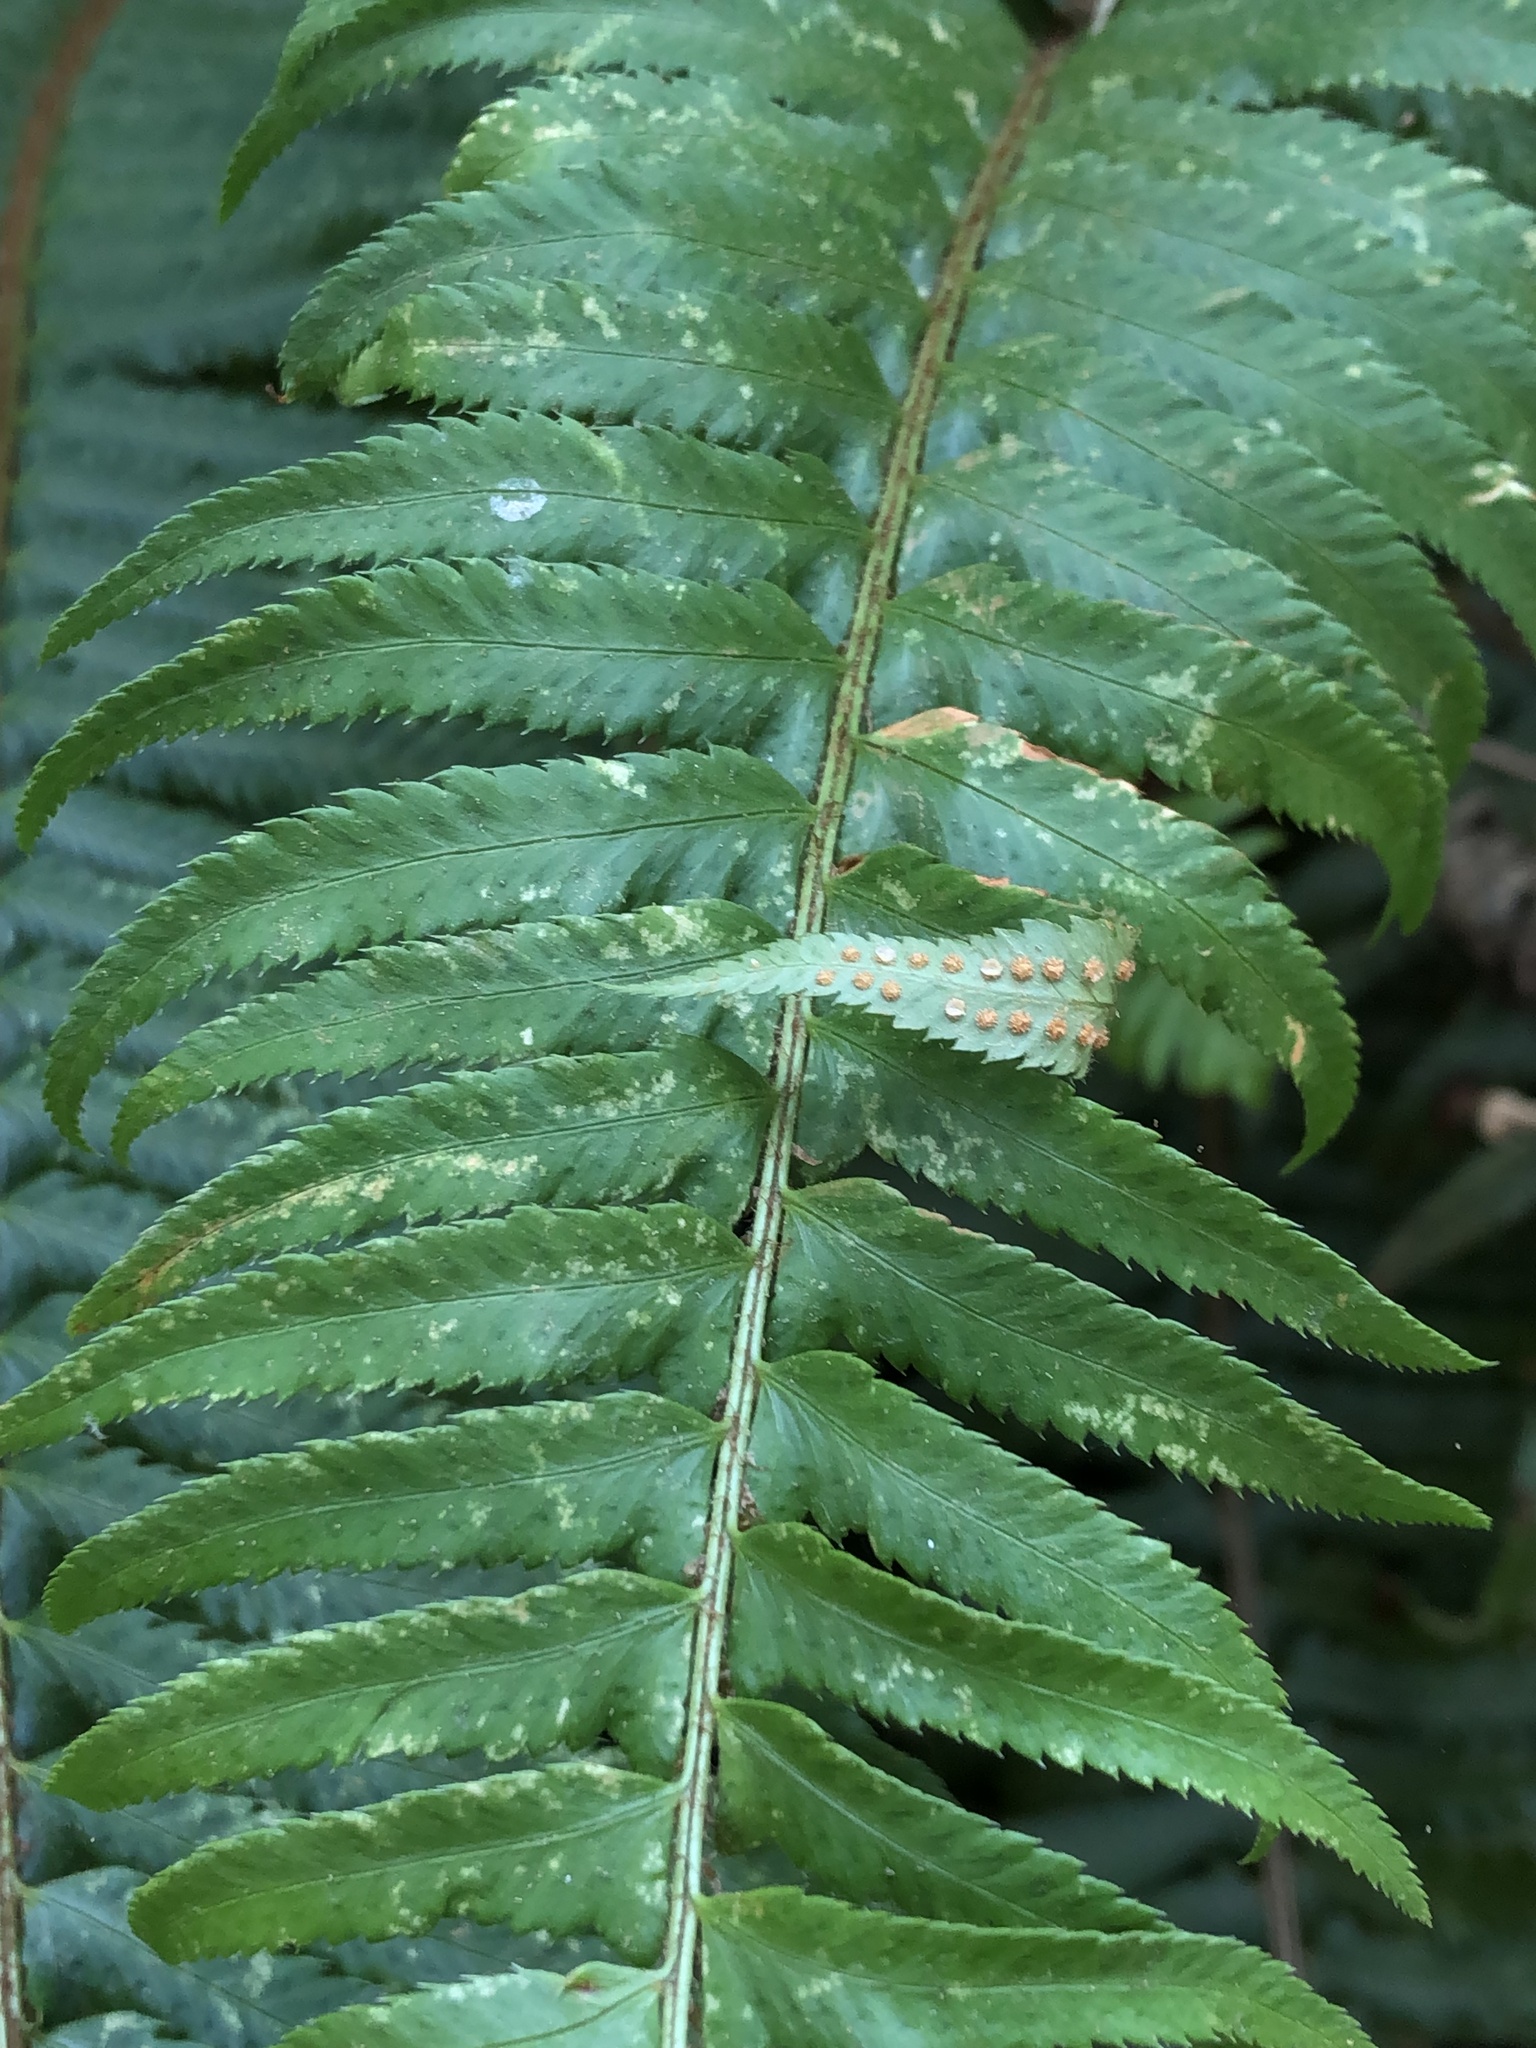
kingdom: Plantae
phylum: Tracheophyta
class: Polypodiopsida
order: Polypodiales
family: Dryopteridaceae
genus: Polystichum
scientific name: Polystichum munitum
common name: Western sword-fern
